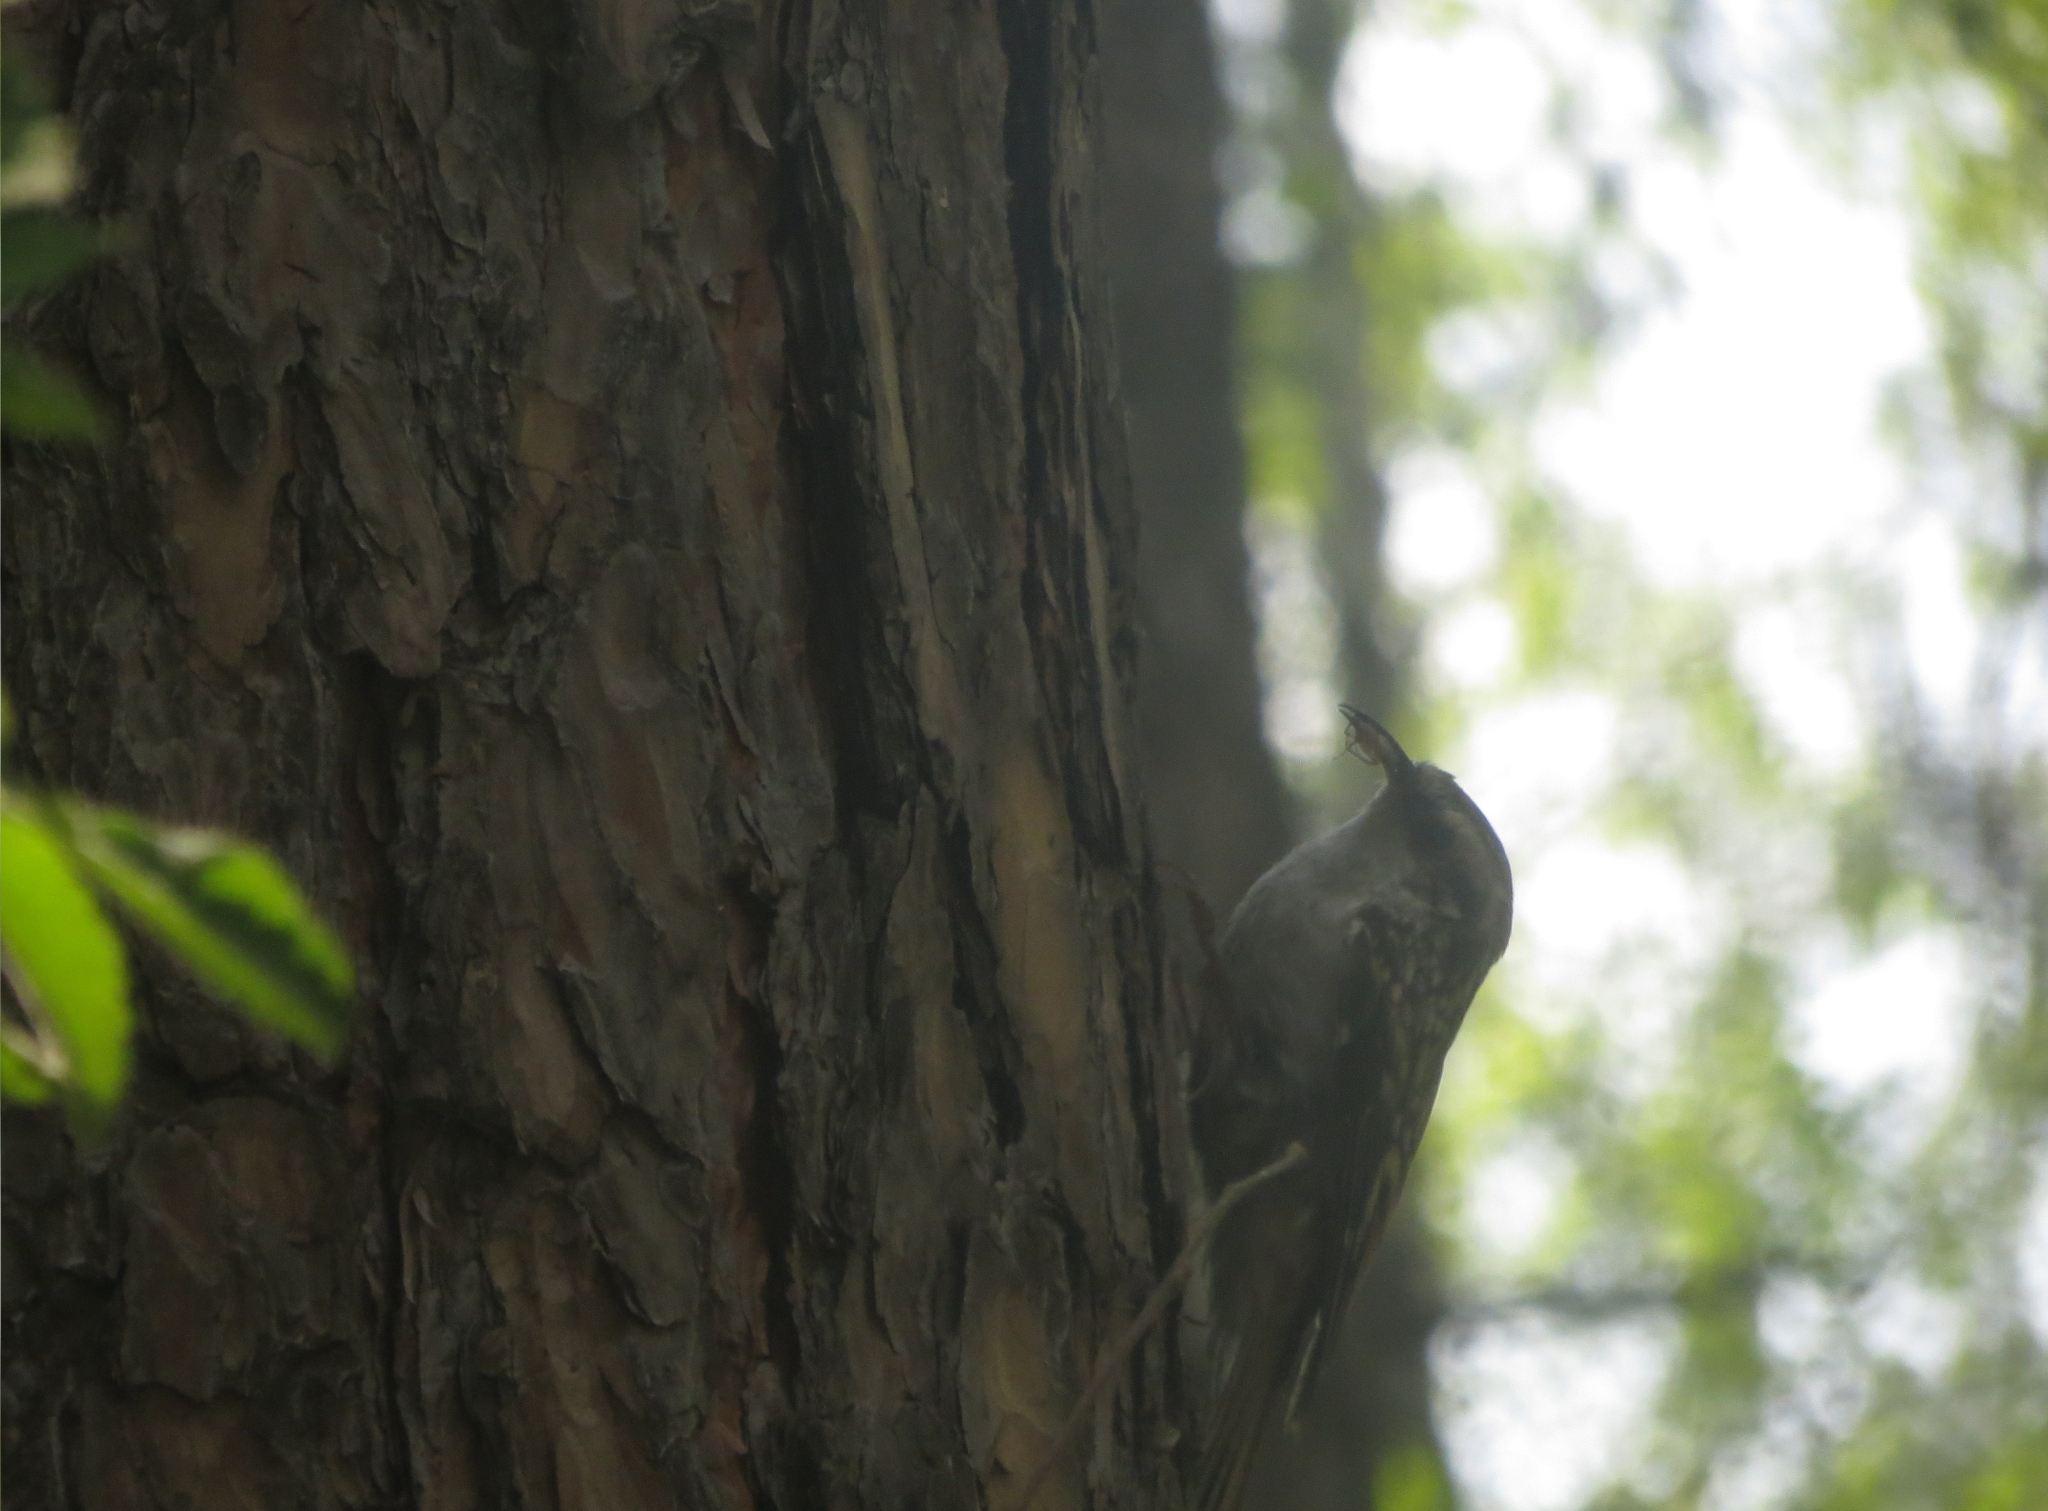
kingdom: Animalia
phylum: Chordata
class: Aves
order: Passeriformes
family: Certhiidae
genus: Certhia
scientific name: Certhia familiaris
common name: Eurasian treecreeper
